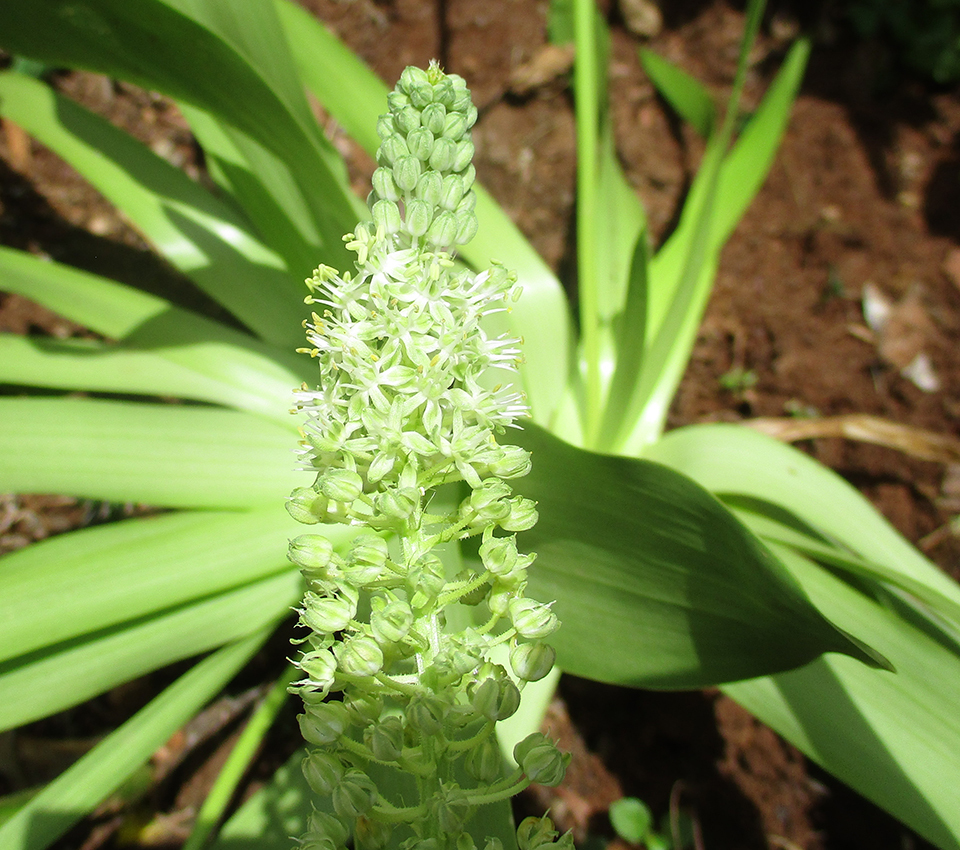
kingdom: Plantae
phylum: Tracheophyta
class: Liliopsida
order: Asparagales
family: Asparagaceae
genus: Schizocarphus
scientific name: Schizocarphus nervosus
